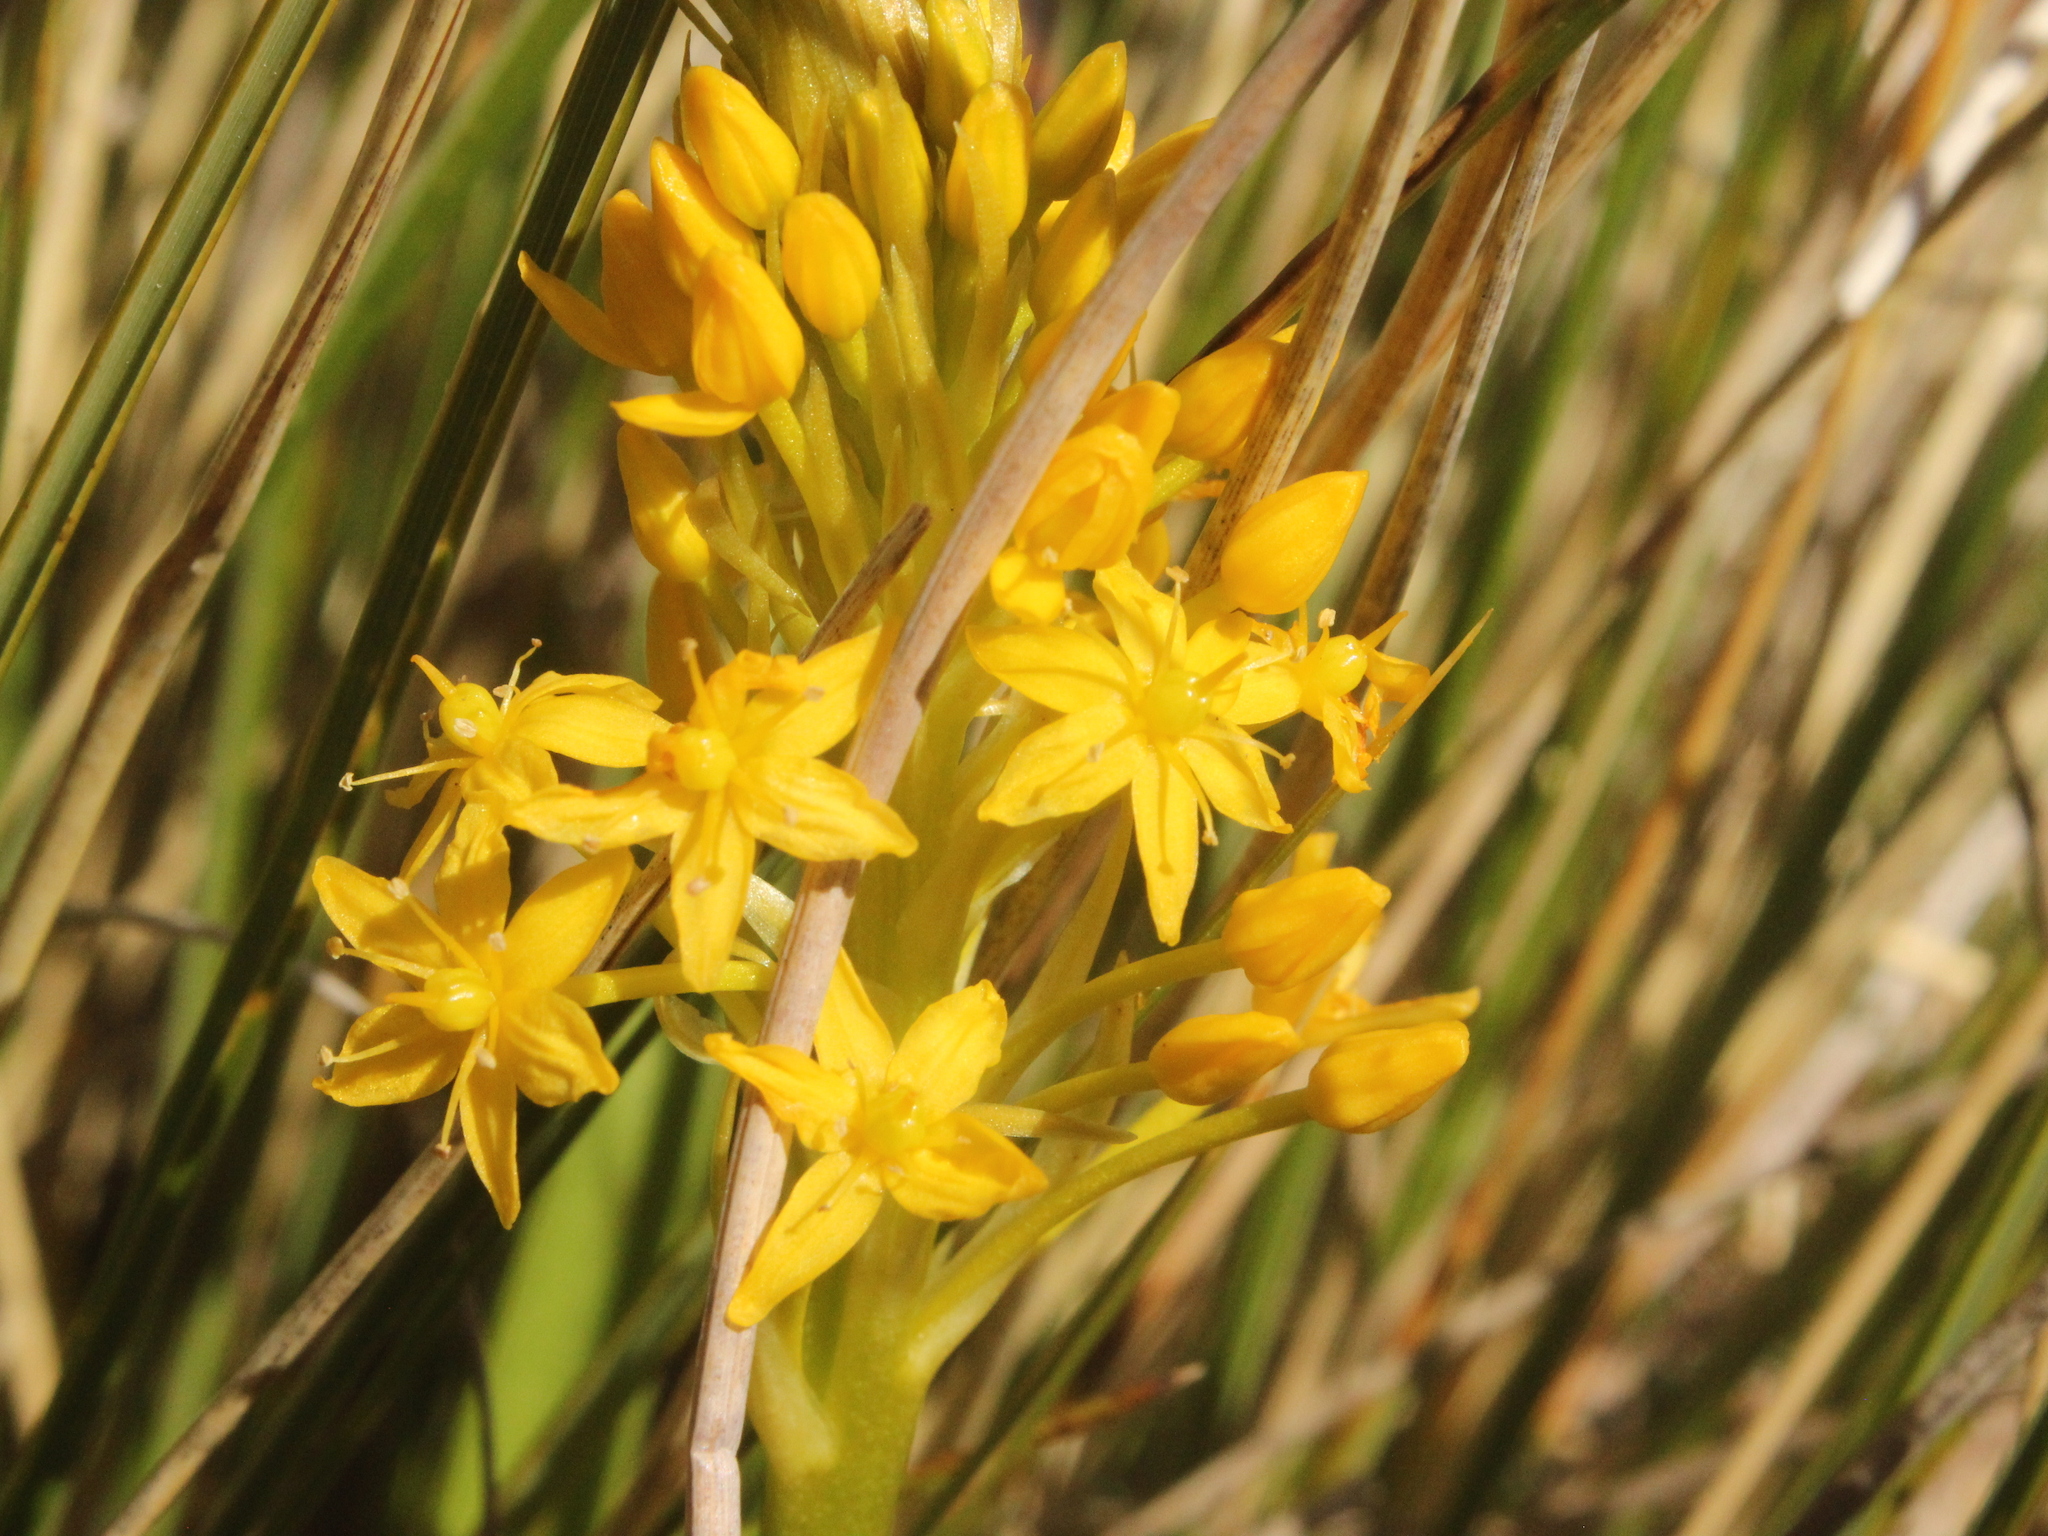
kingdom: Plantae
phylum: Tracheophyta
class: Liliopsida
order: Asparagales
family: Asphodelaceae
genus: Bulbinella
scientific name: Bulbinella hookeri
